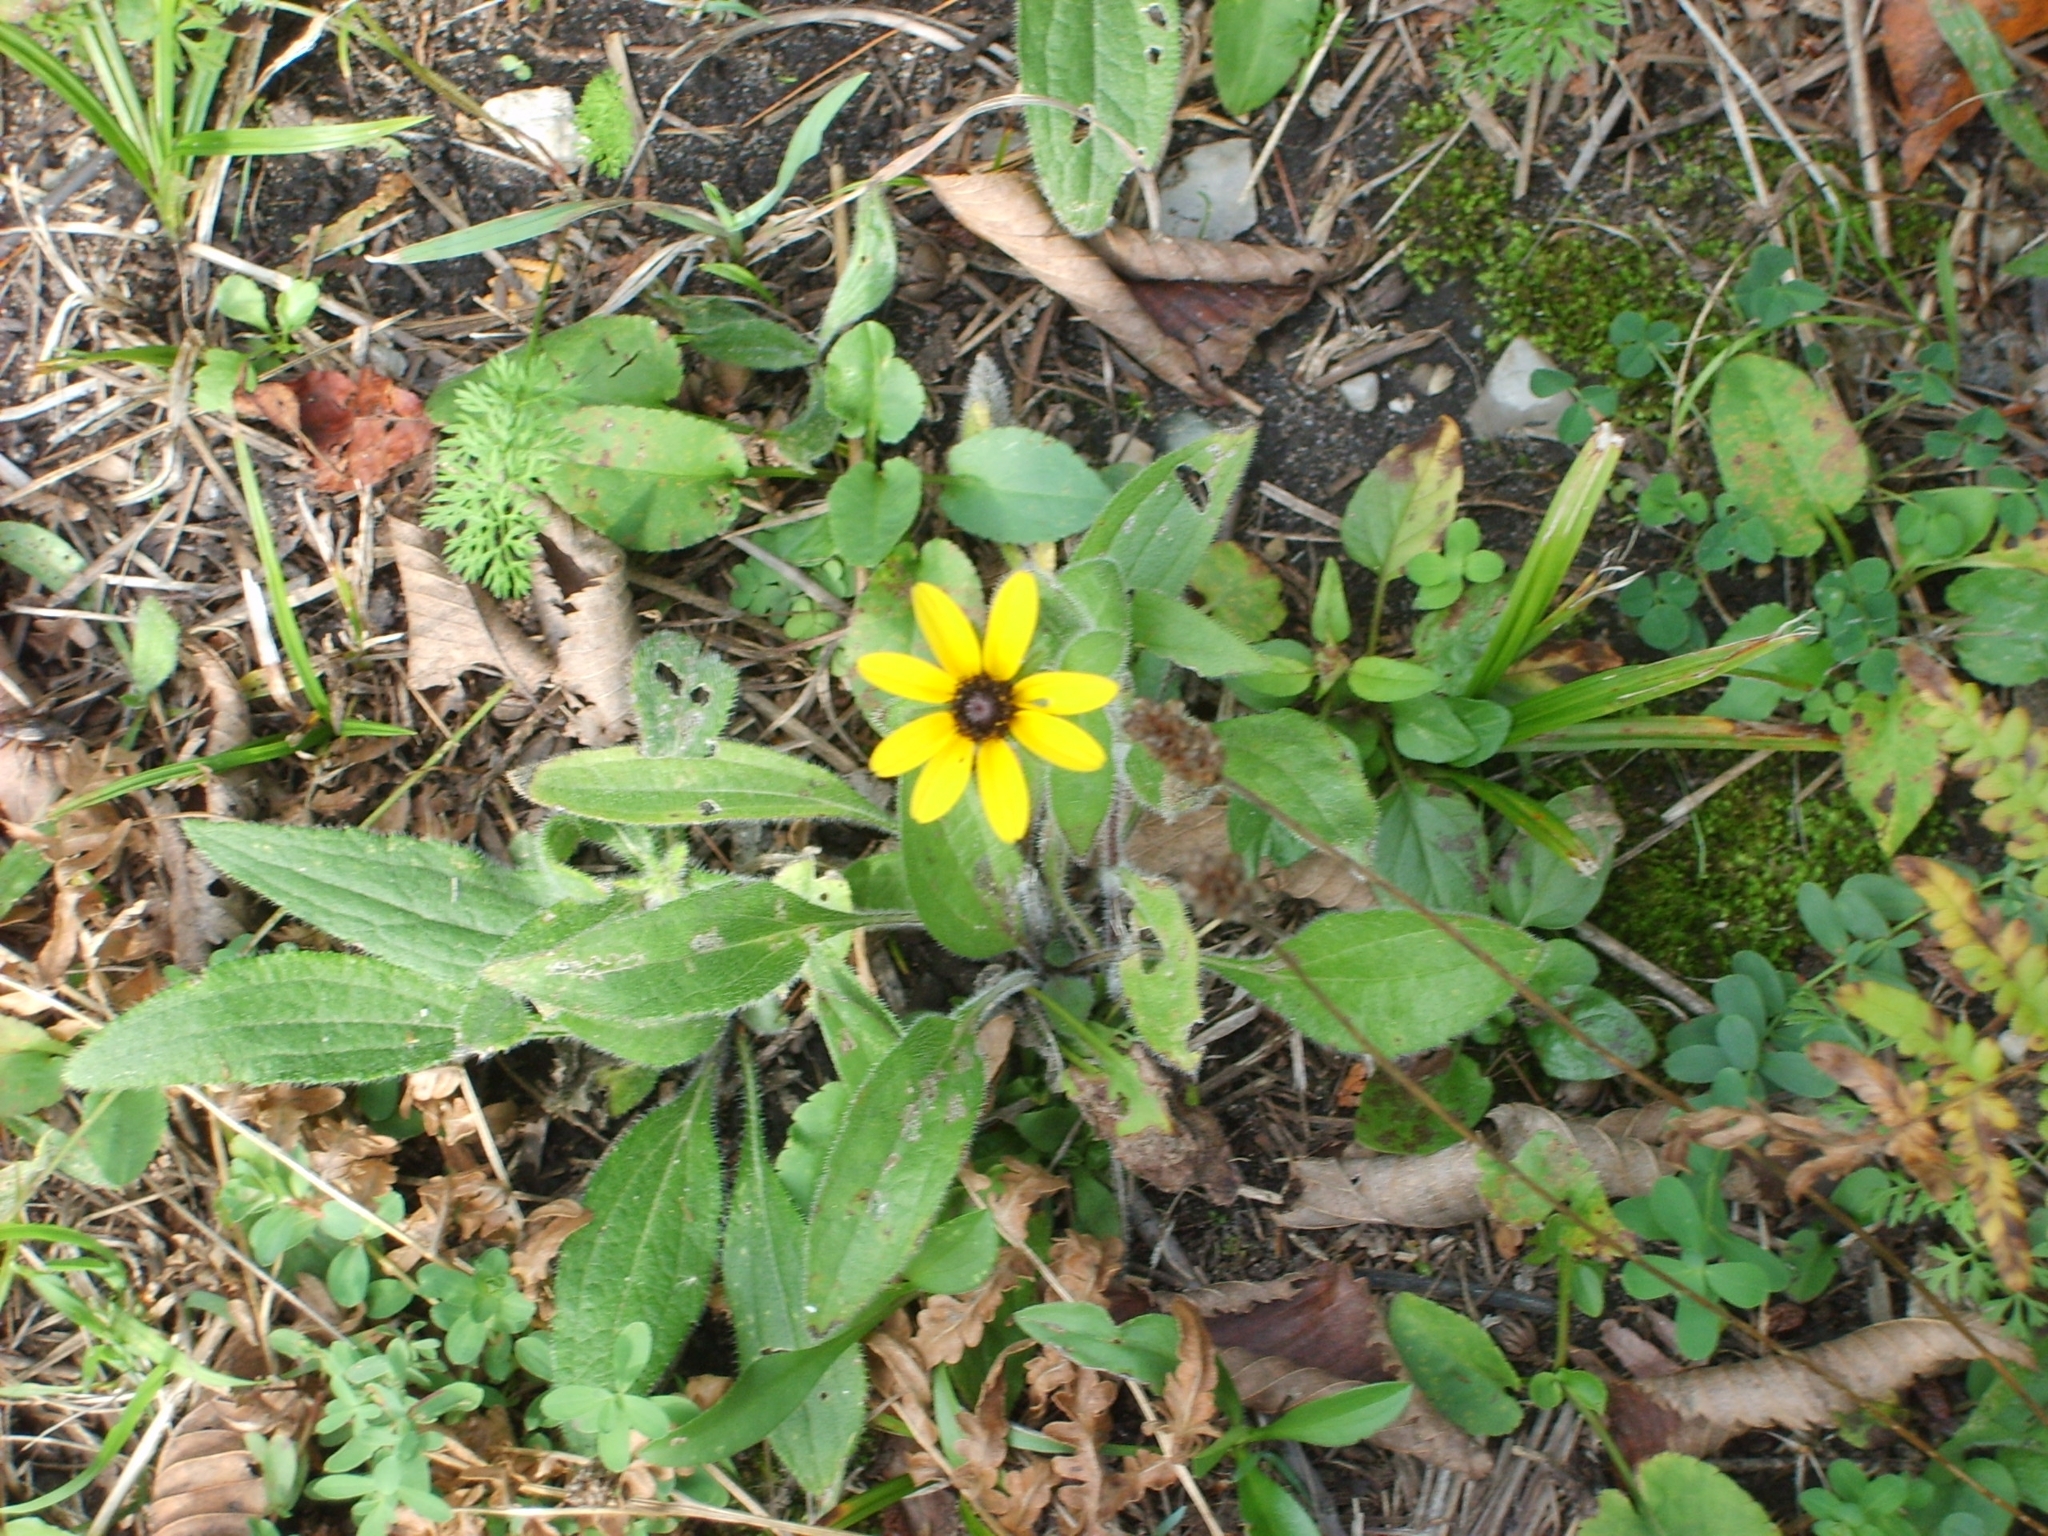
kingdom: Plantae
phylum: Tracheophyta
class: Magnoliopsida
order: Asterales
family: Asteraceae
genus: Rudbeckia
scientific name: Rudbeckia hirta
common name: Black-eyed-susan
